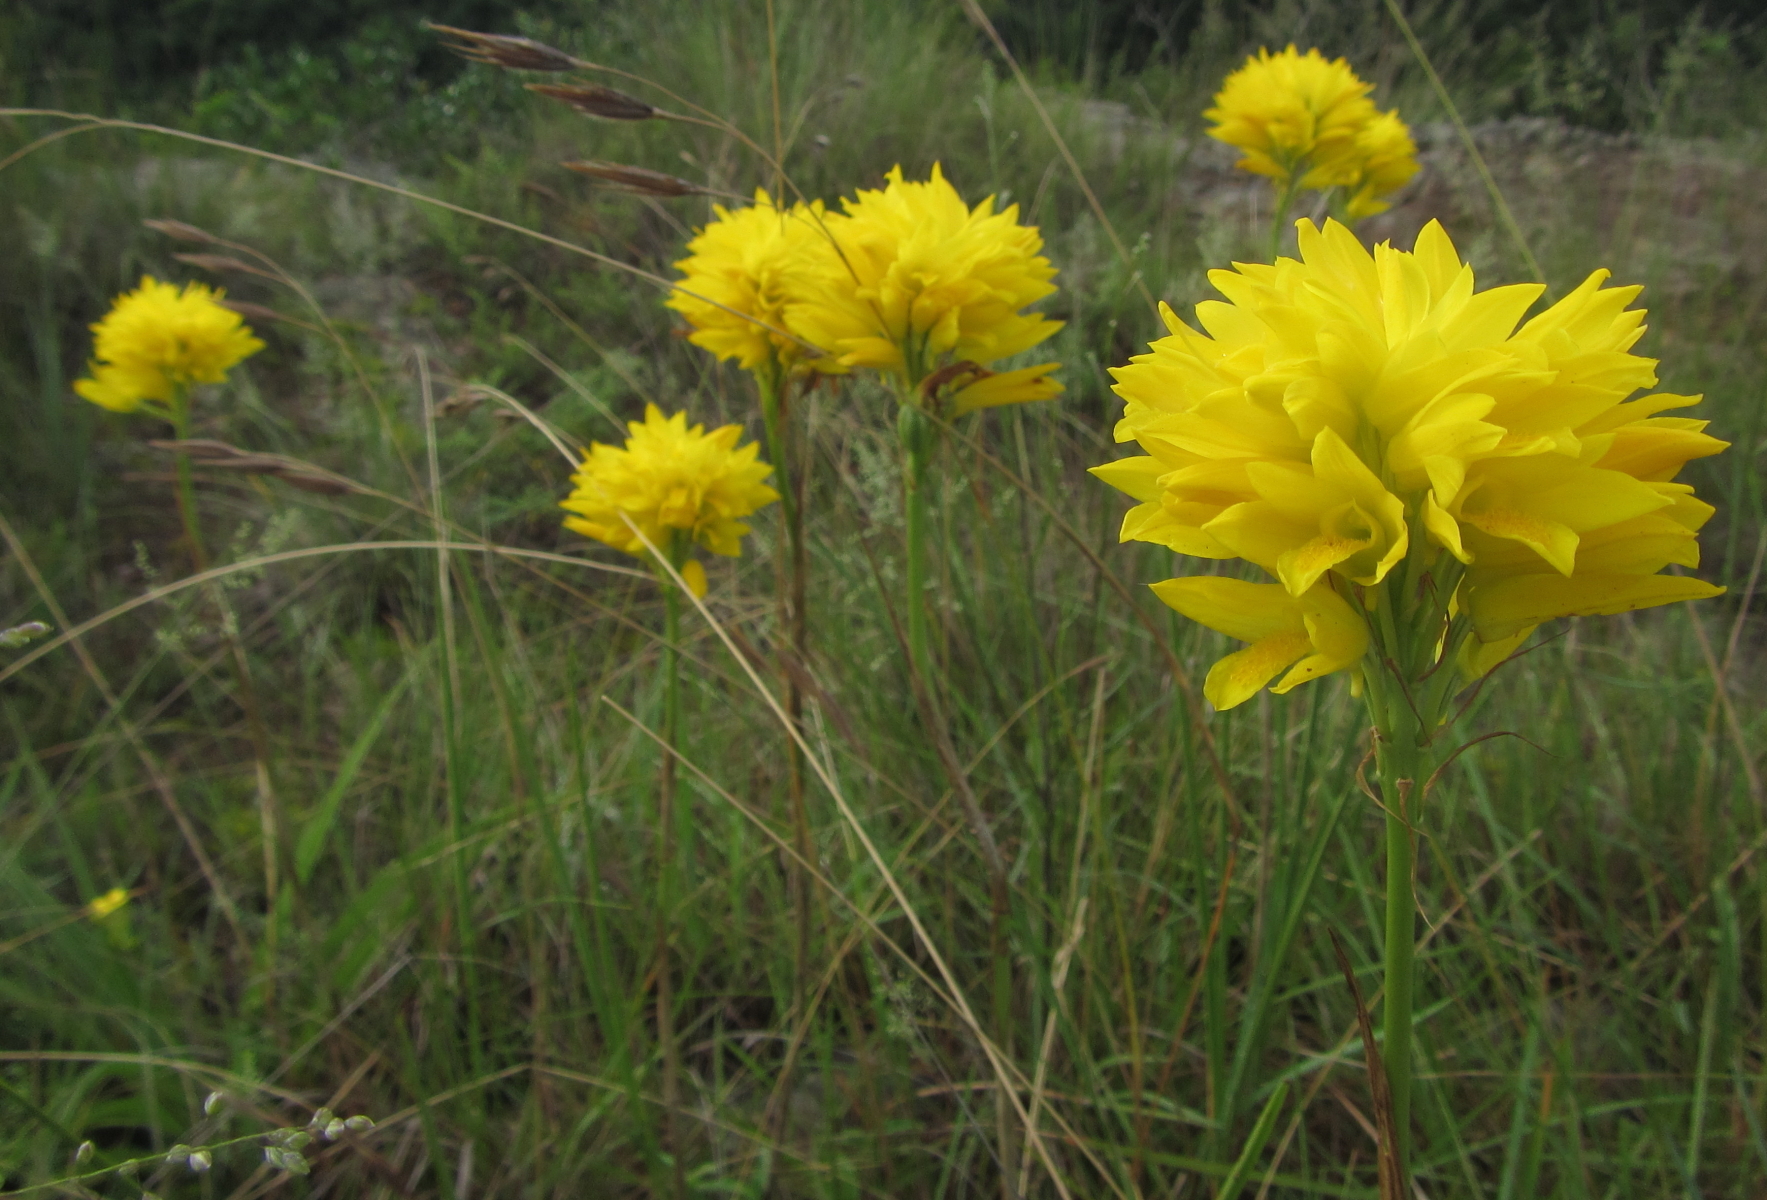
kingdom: Plantae
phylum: Tracheophyta
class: Liliopsida
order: Asparagales
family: Orchidaceae
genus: Eulophia
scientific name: Eulophia ensata
